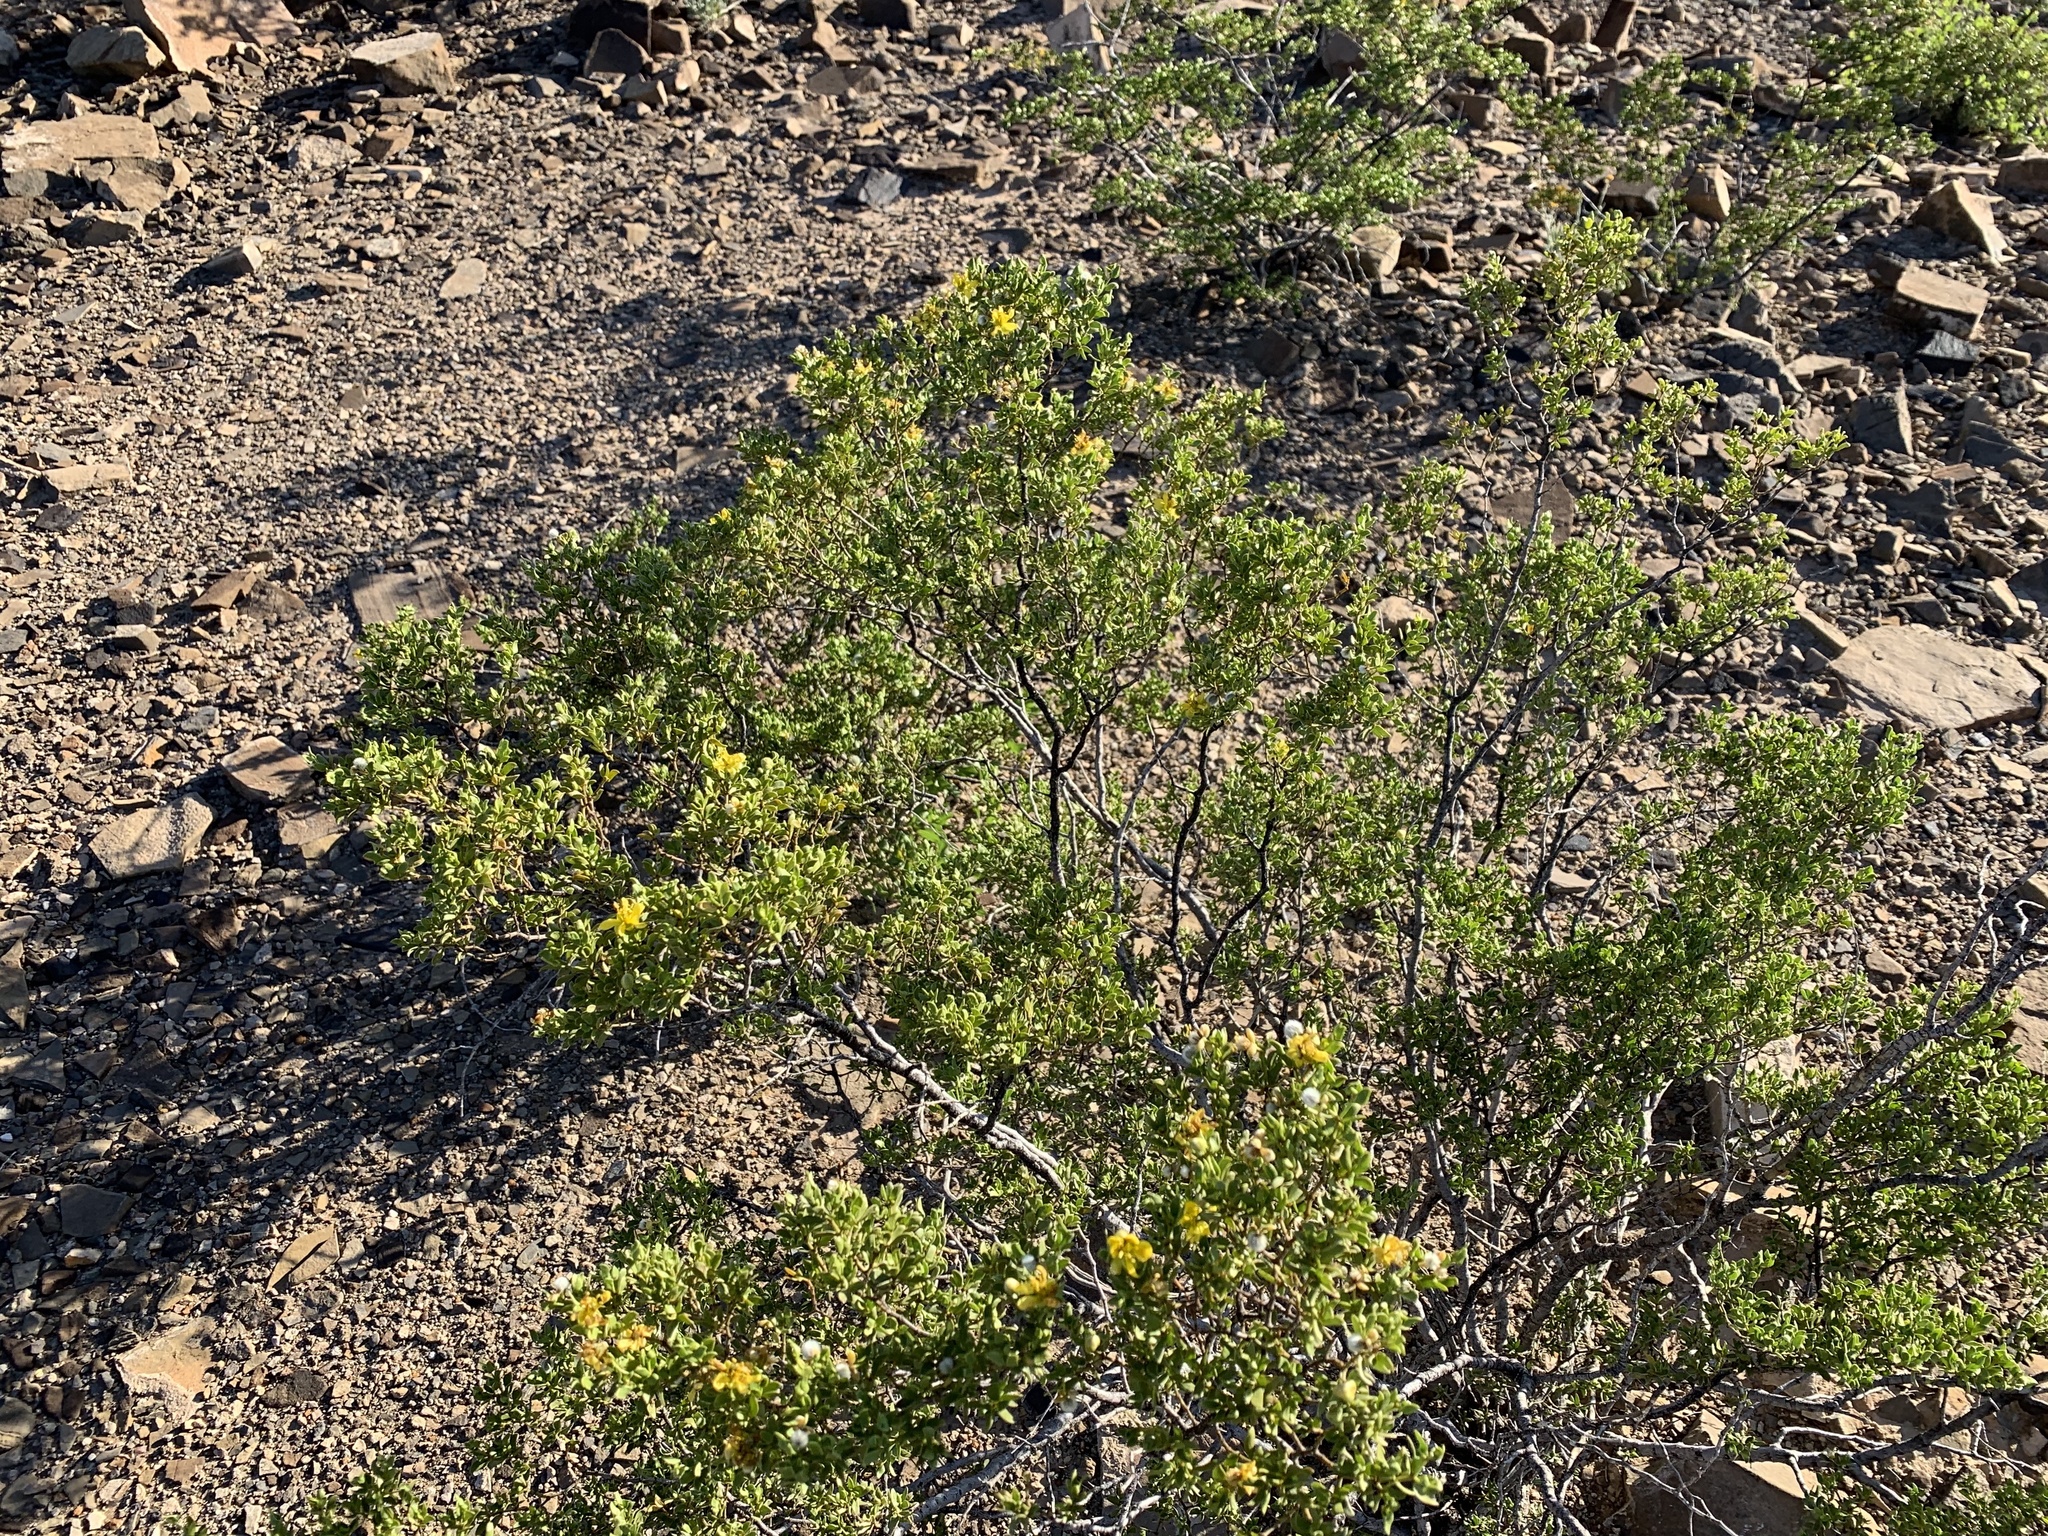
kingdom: Plantae
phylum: Tracheophyta
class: Magnoliopsida
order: Zygophyllales
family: Zygophyllaceae
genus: Larrea
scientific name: Larrea tridentata
